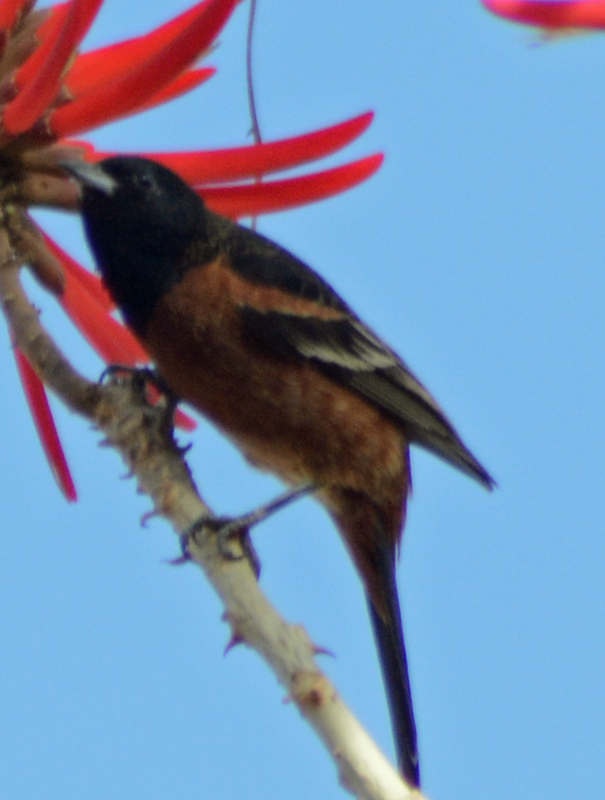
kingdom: Animalia
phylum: Chordata
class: Aves
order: Passeriformes
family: Icteridae
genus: Icterus
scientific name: Icterus spurius
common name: Orchard oriole
